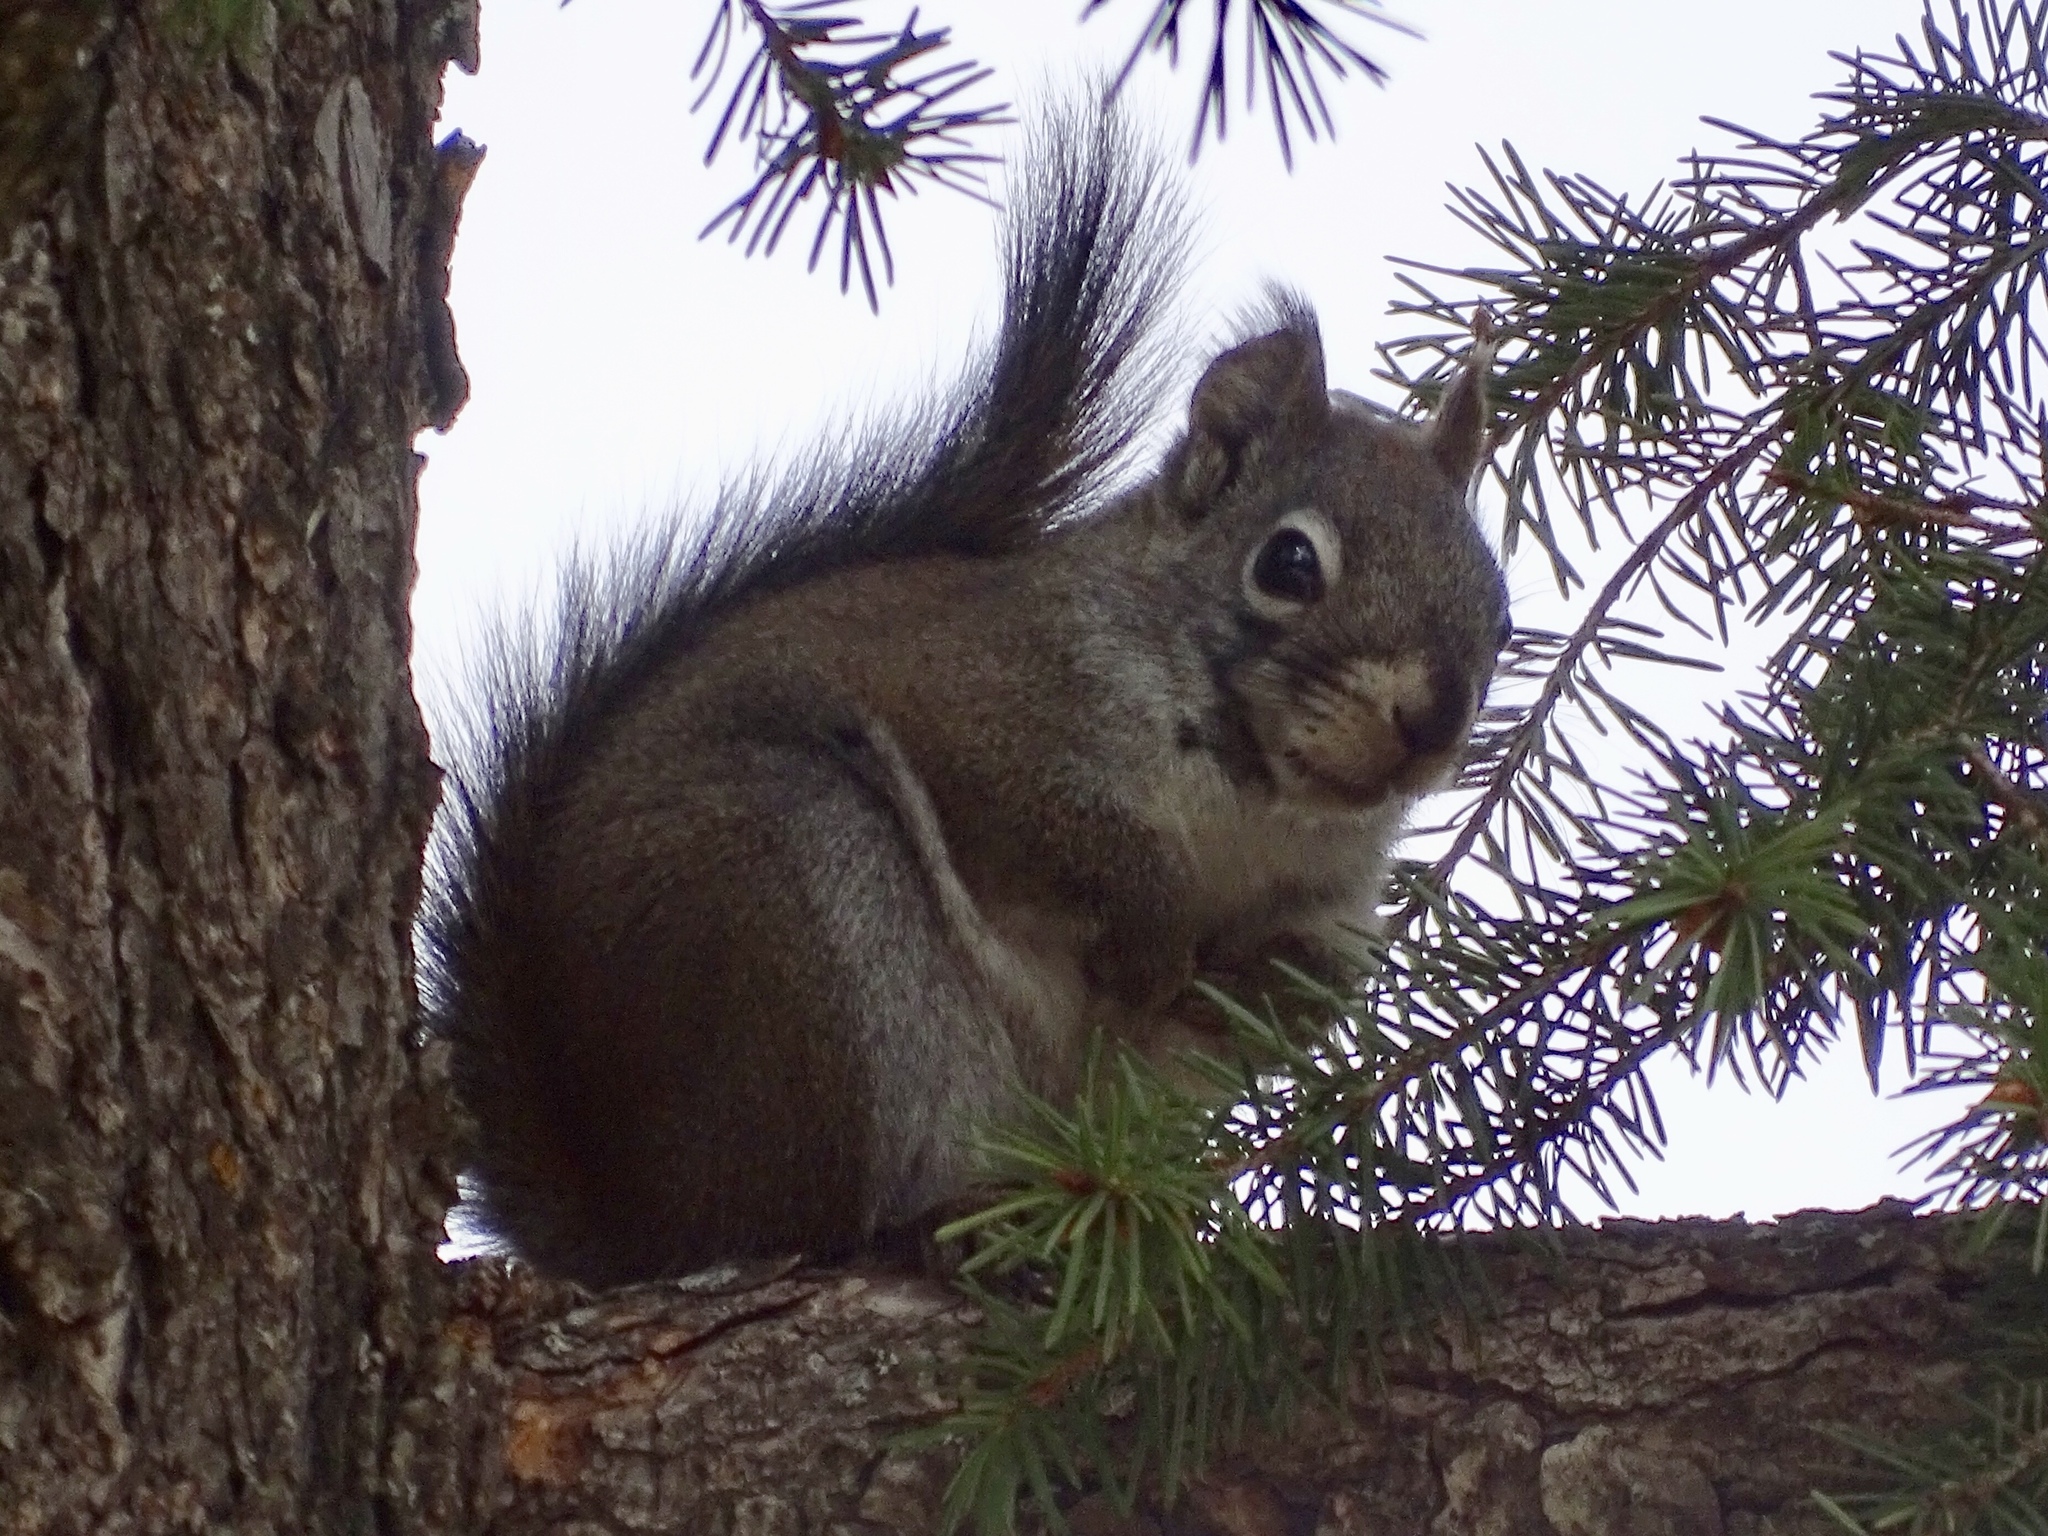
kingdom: Animalia
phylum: Chordata
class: Mammalia
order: Rodentia
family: Sciuridae
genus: Tamiasciurus
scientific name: Tamiasciurus hudsonicus
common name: Red squirrel
